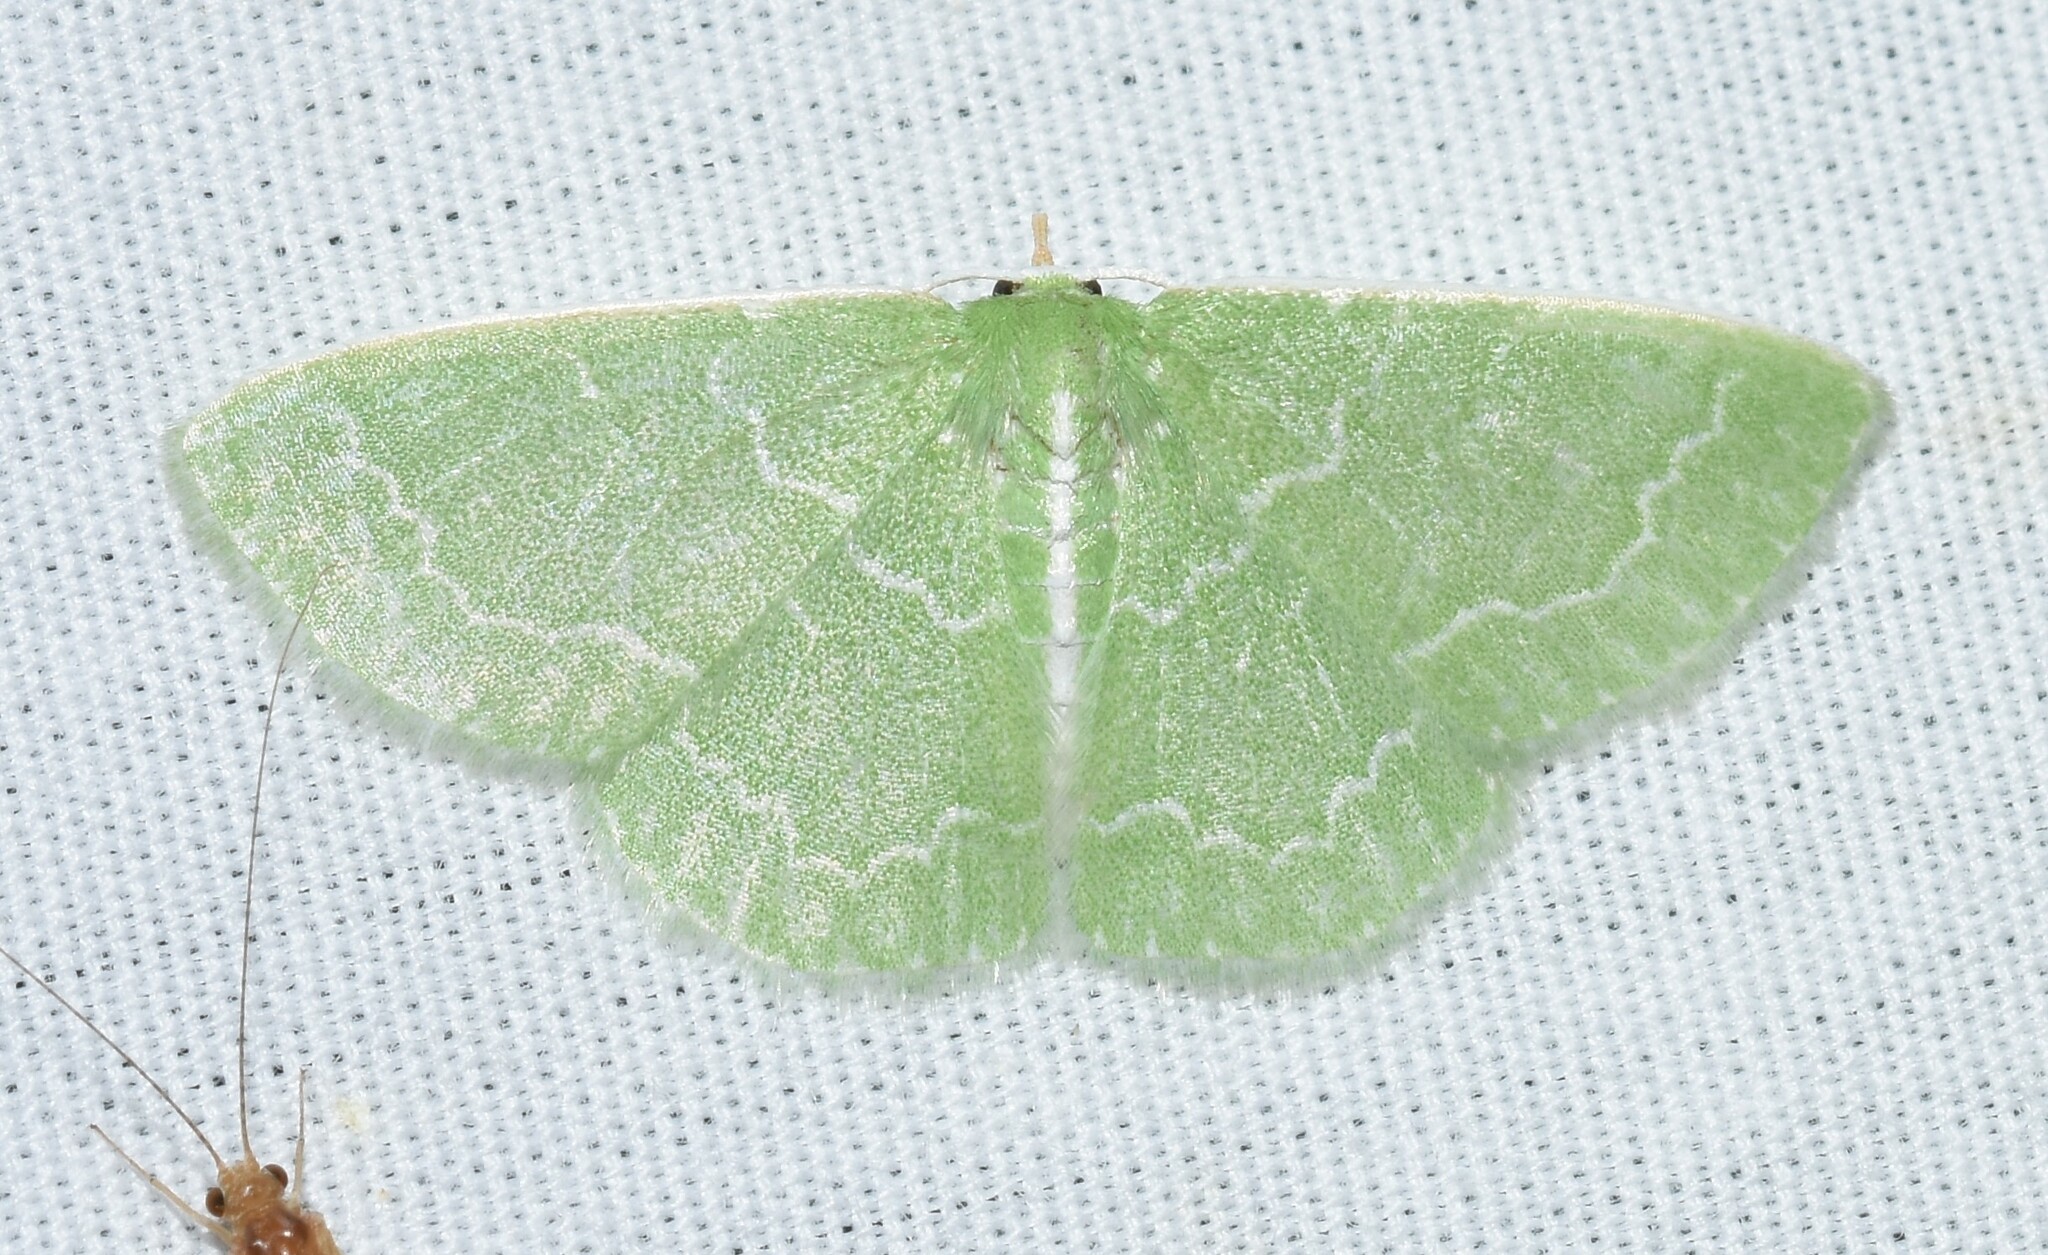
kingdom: Animalia
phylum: Arthropoda
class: Insecta
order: Lepidoptera
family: Geometridae
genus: Synchlora
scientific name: Synchlora aerata
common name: Wavy-lined emerald
